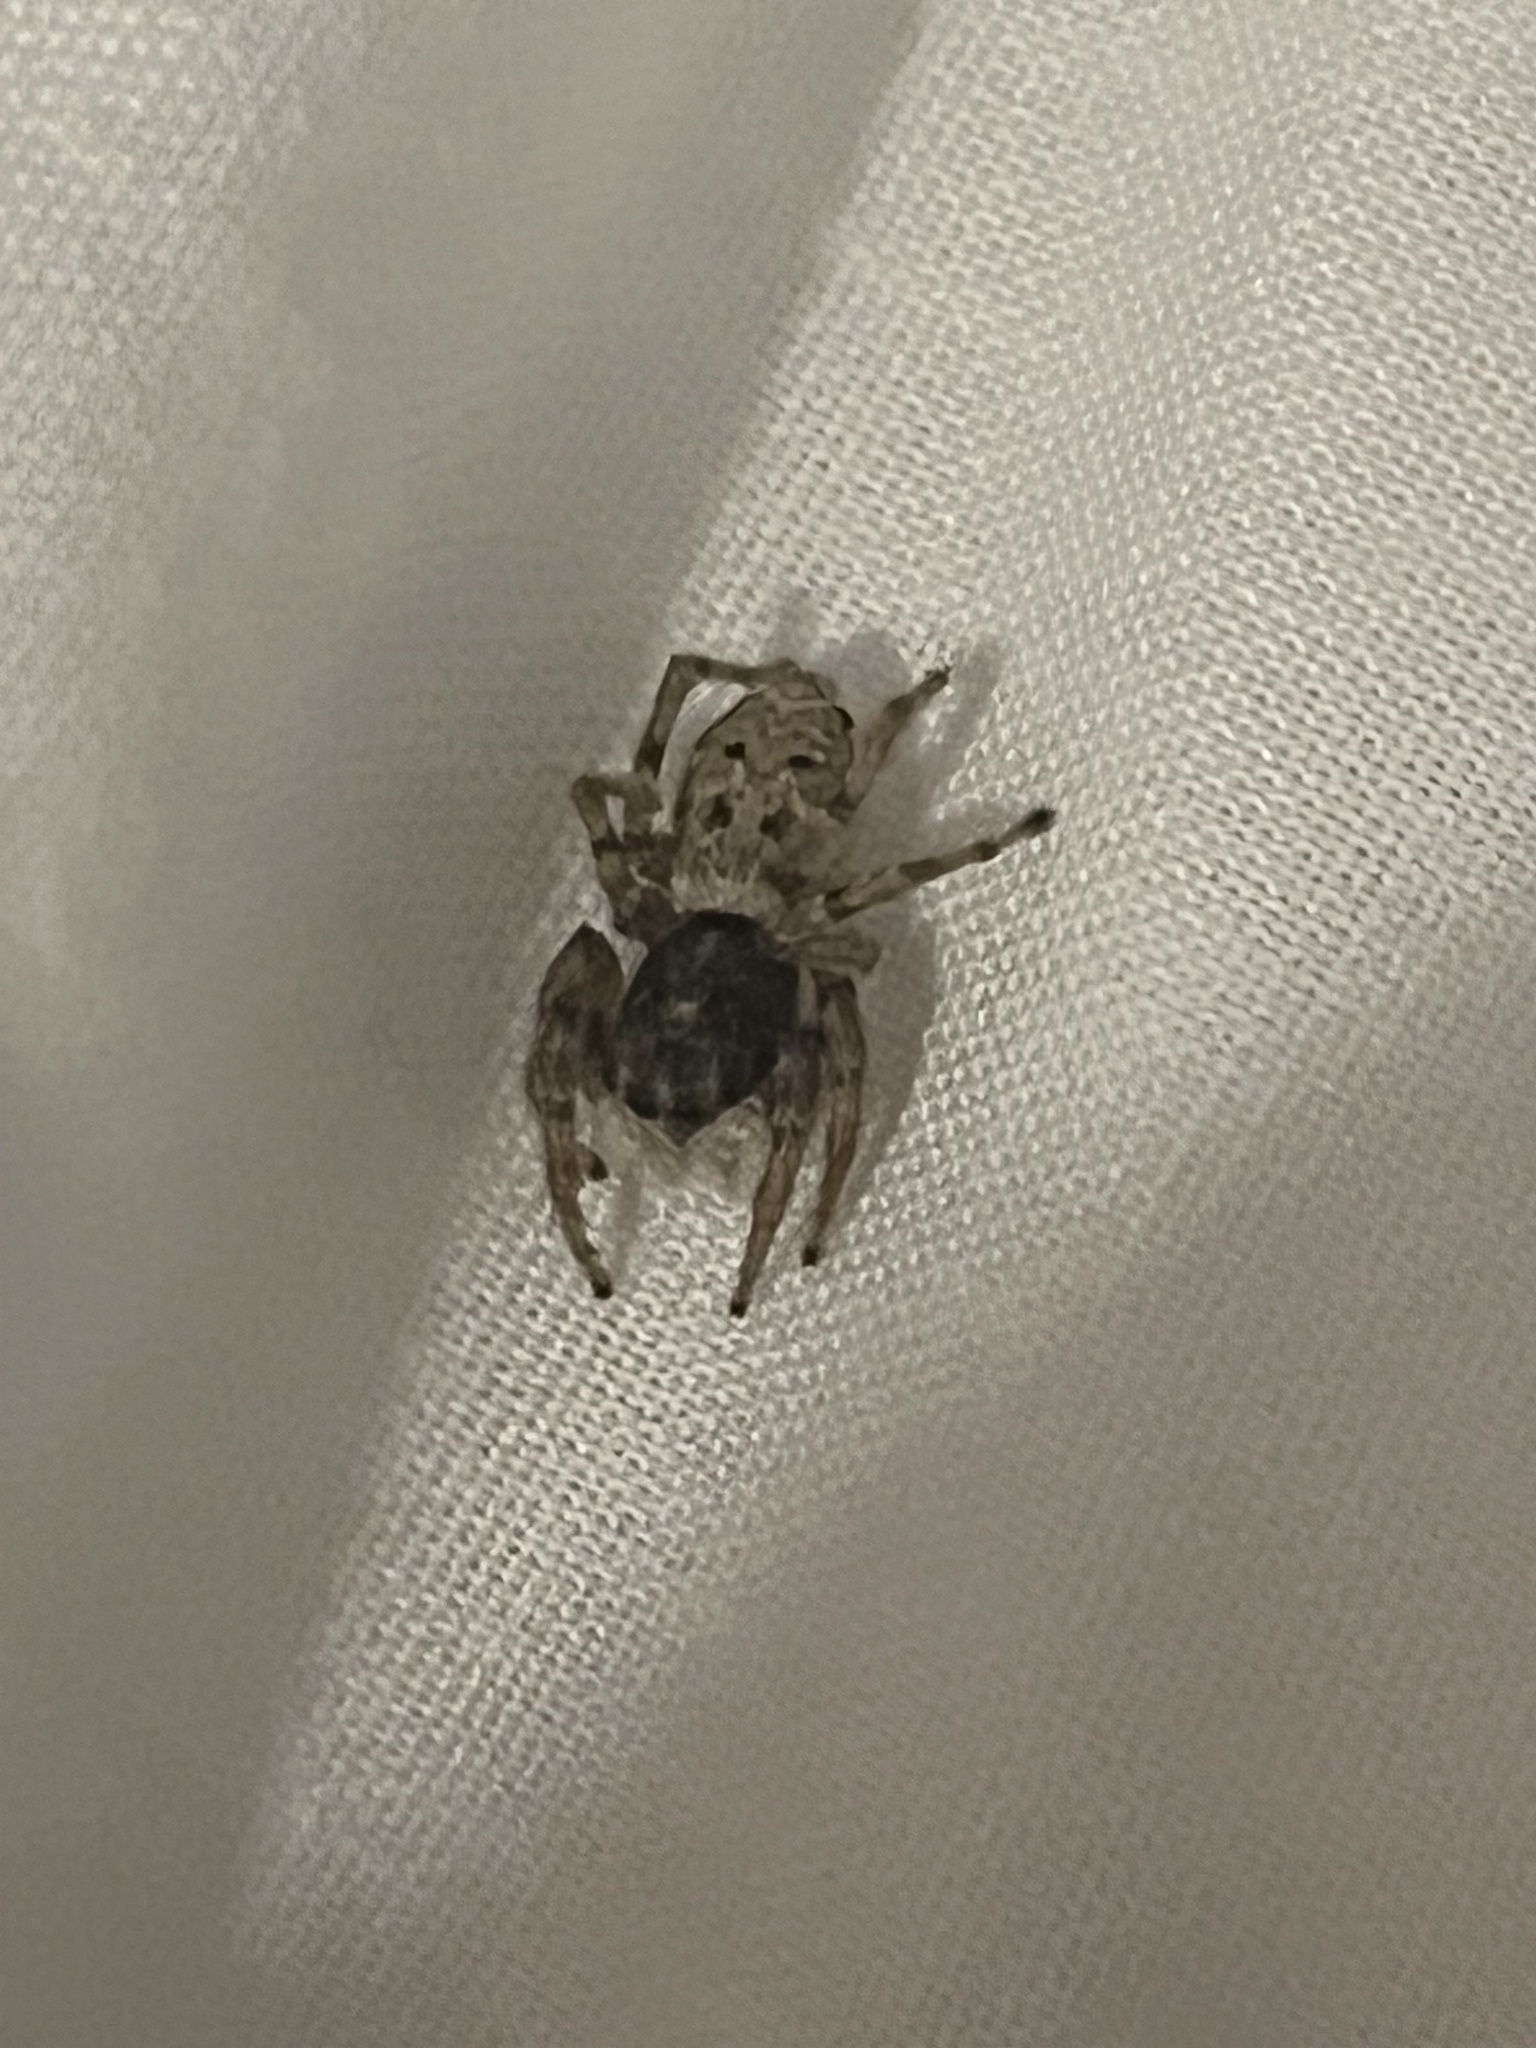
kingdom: Animalia
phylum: Arthropoda
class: Arachnida
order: Araneae
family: Salticidae
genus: Menemerus
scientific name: Menemerus semilimbatus
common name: Jumping spider
